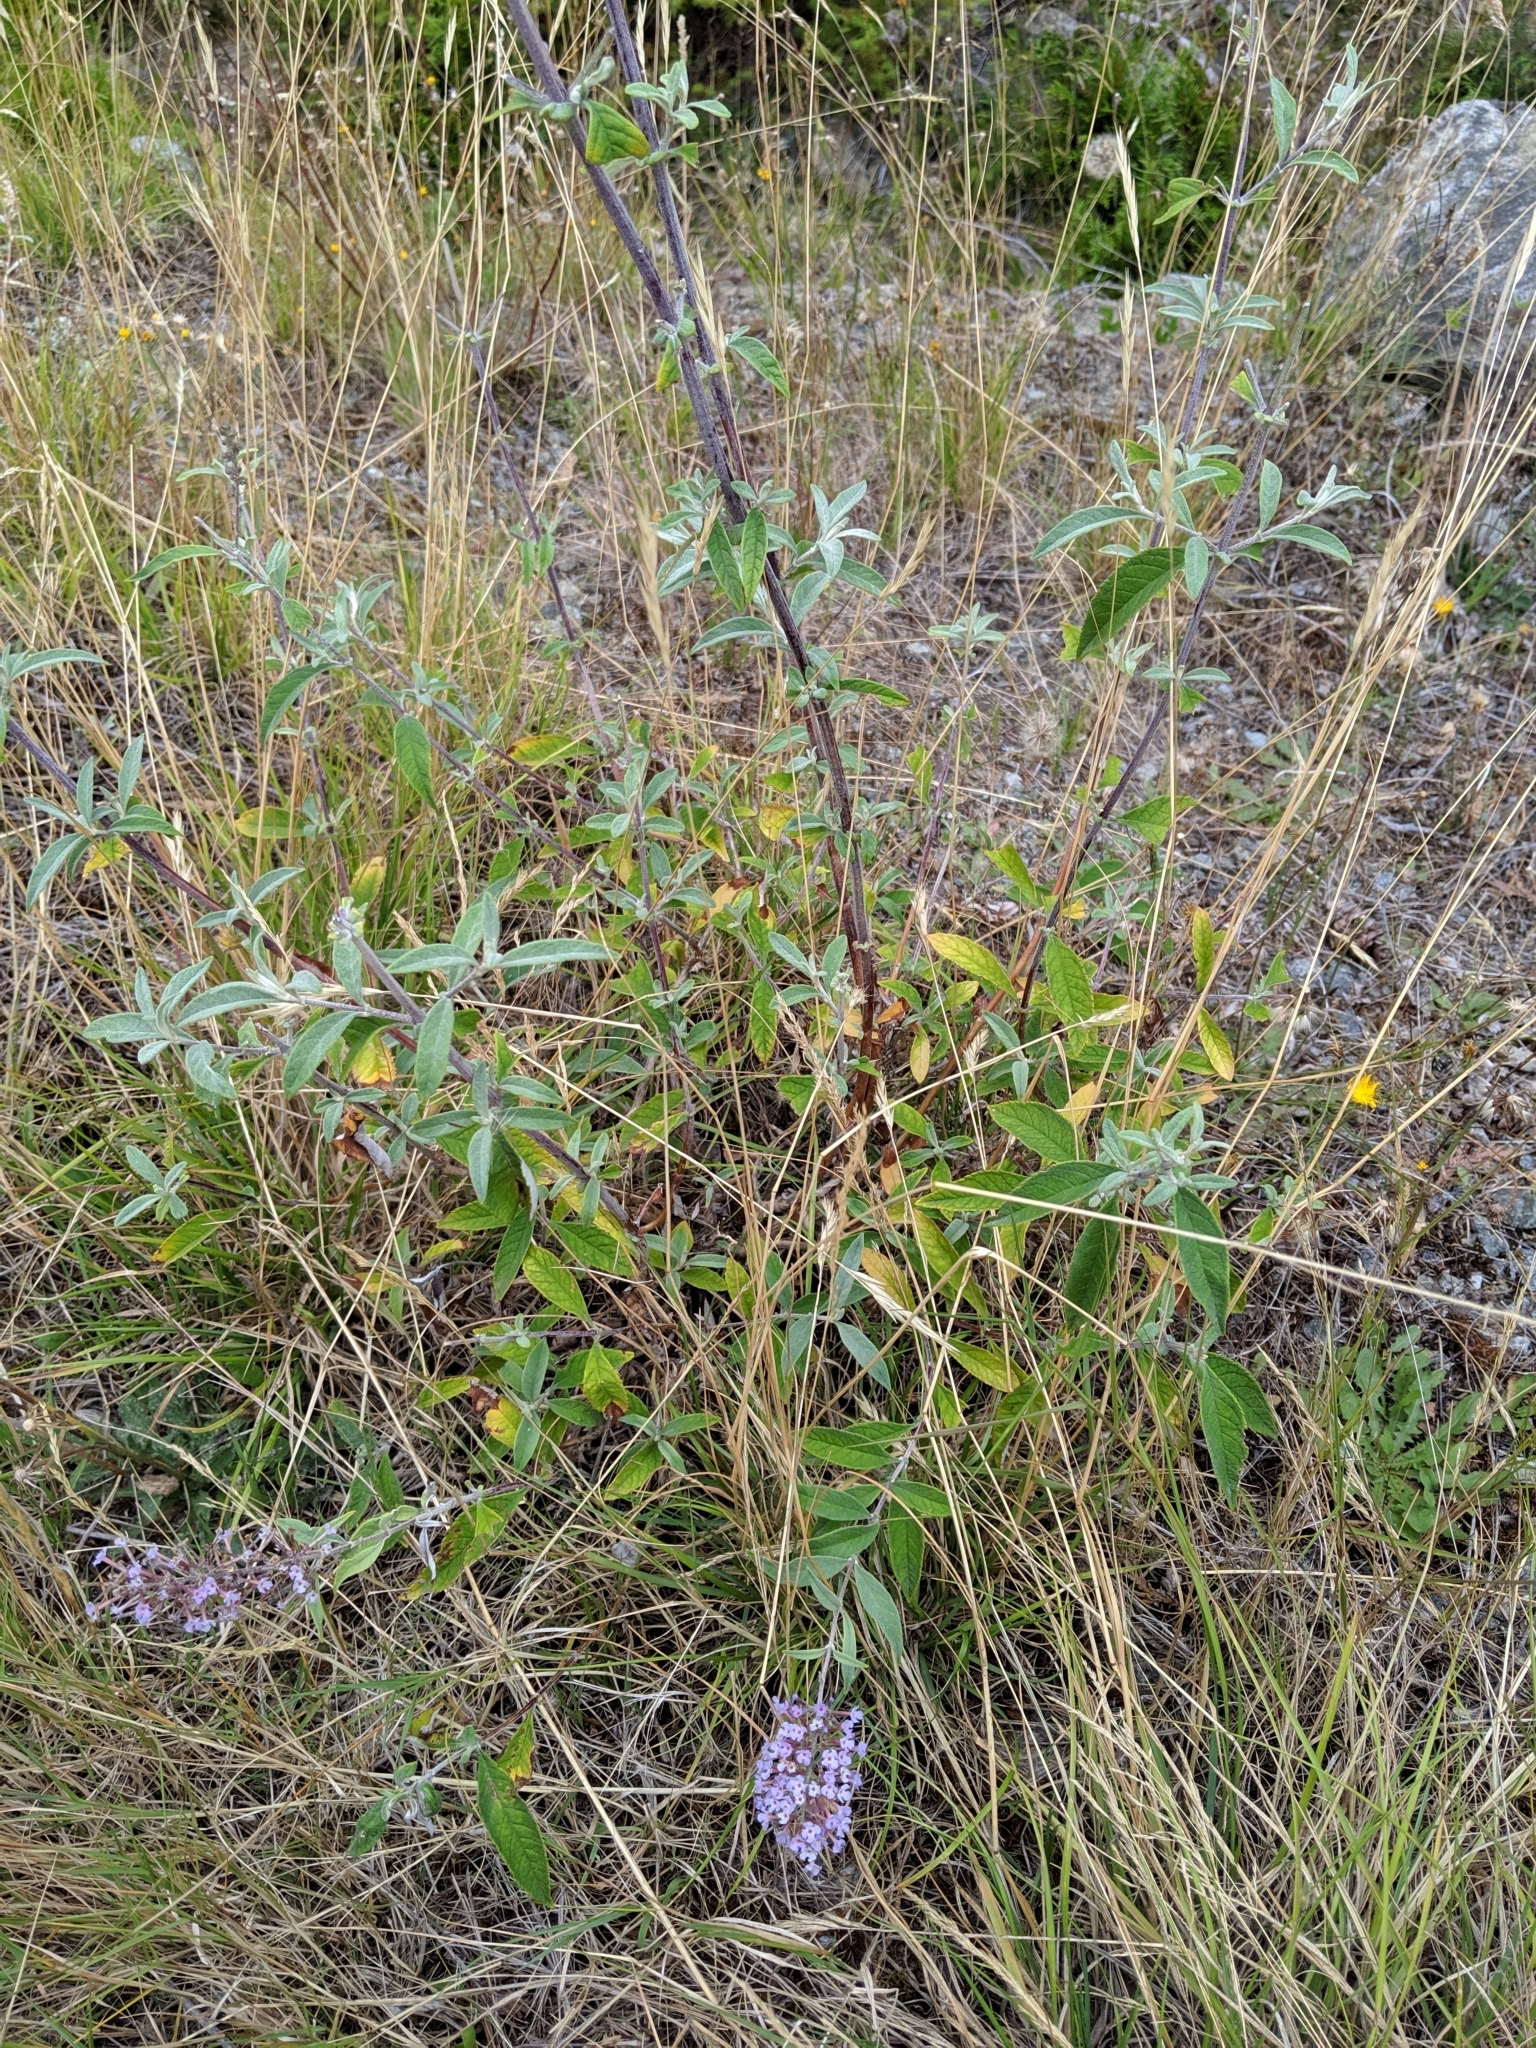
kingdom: Plantae
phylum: Tracheophyta
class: Magnoliopsida
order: Lamiales
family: Scrophulariaceae
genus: Buddleja
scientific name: Buddleja davidii
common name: Butterfly-bush
